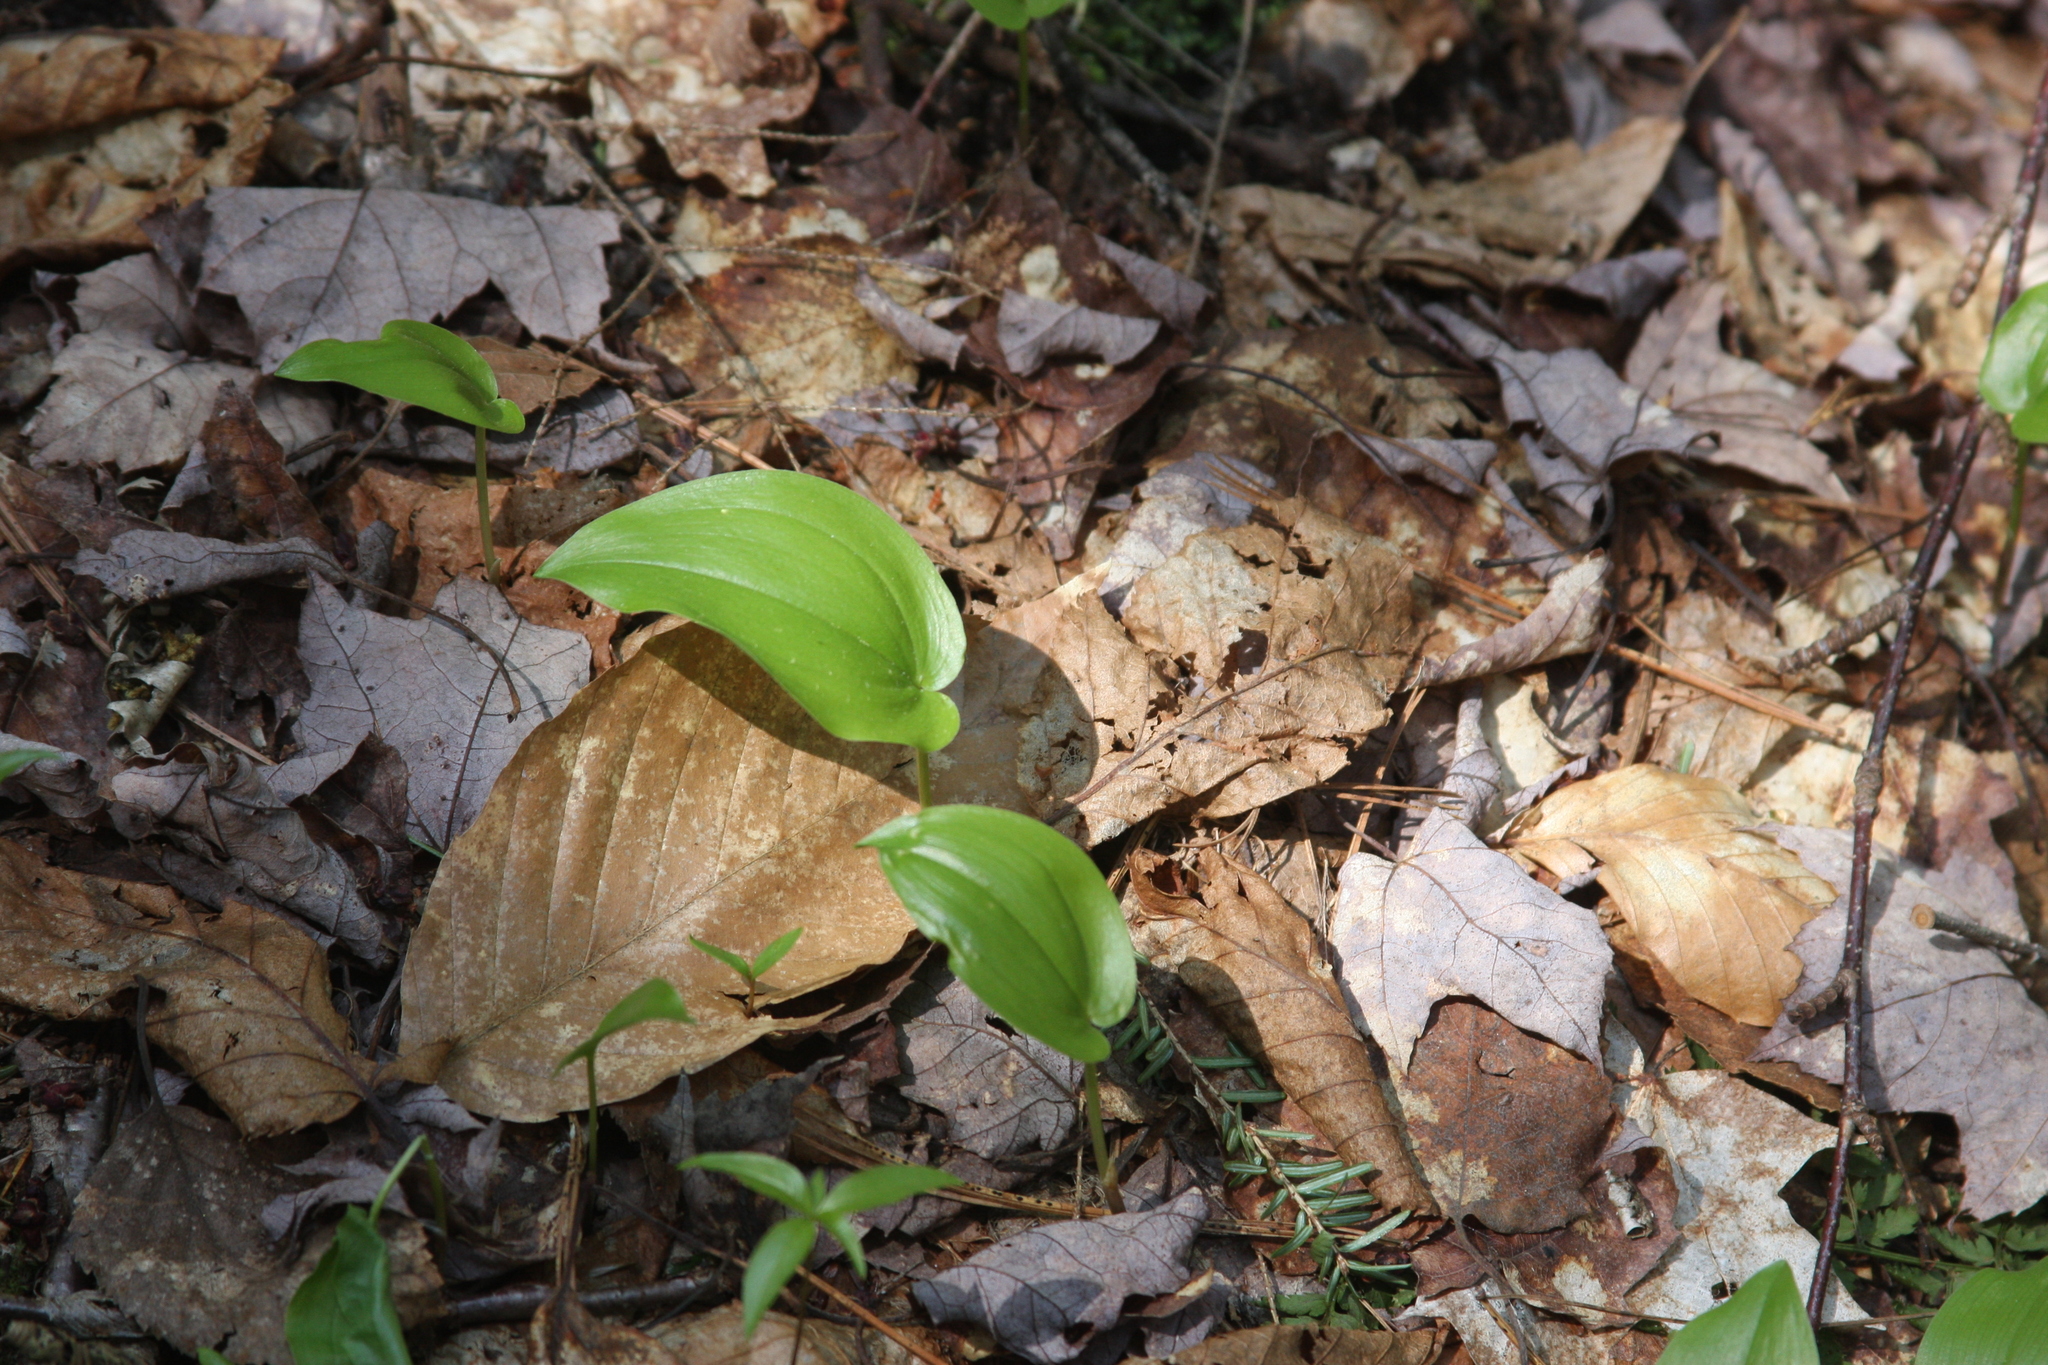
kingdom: Plantae
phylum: Tracheophyta
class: Liliopsida
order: Asparagales
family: Asparagaceae
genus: Maianthemum
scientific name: Maianthemum canadense
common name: False lily-of-the-valley
